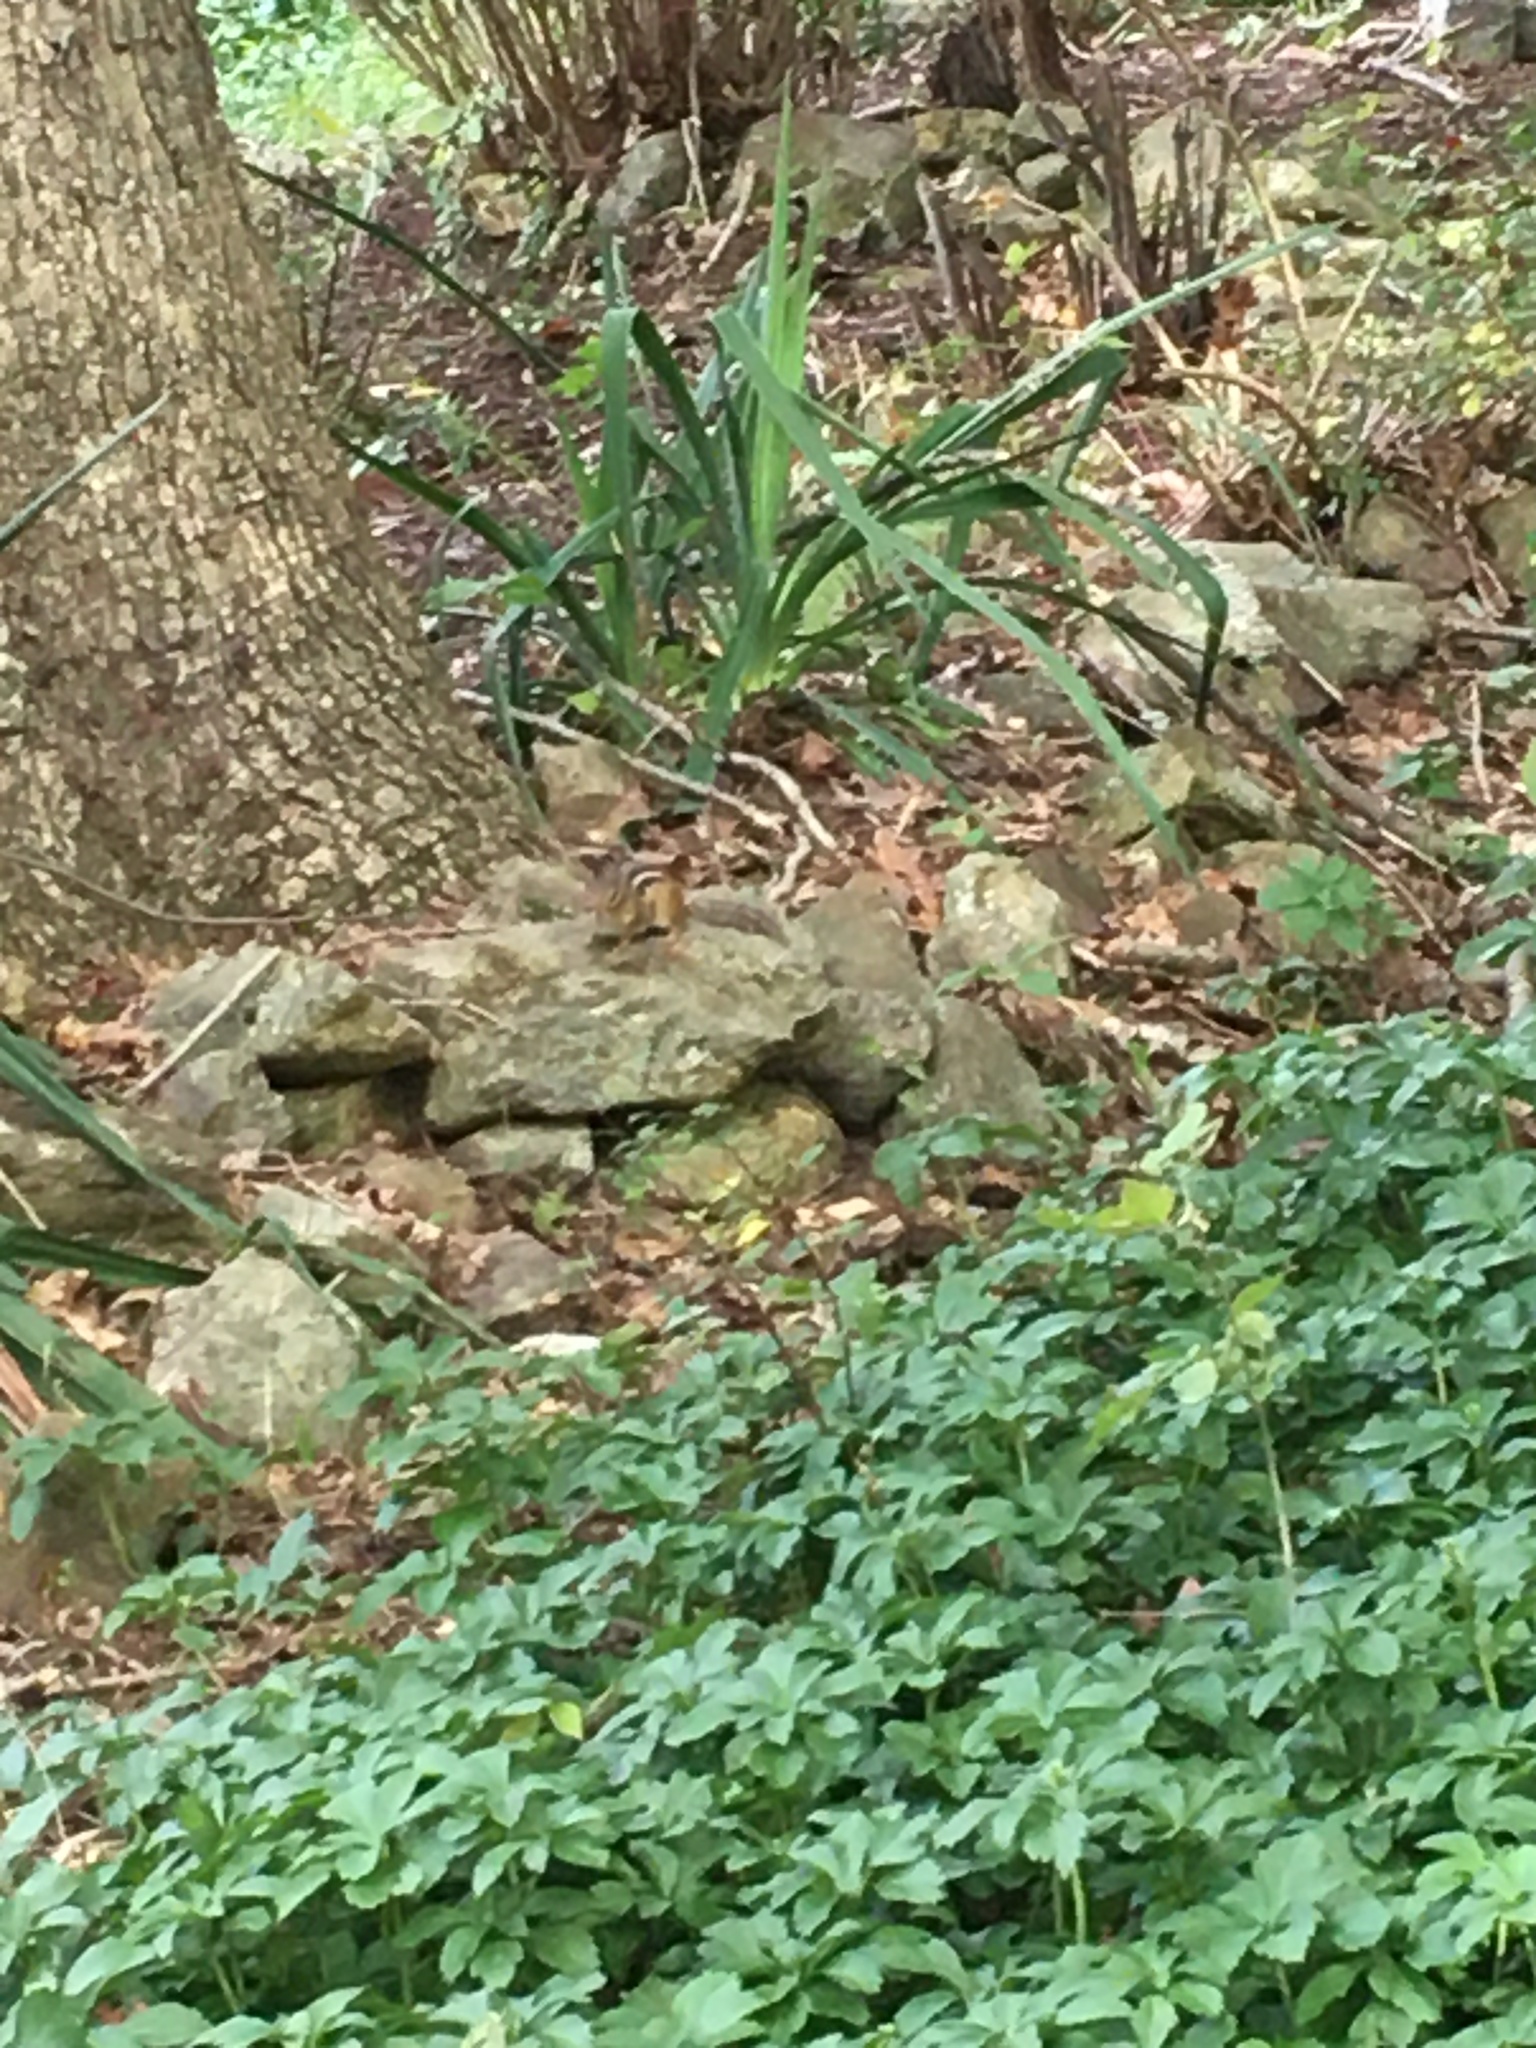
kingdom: Animalia
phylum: Chordata
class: Mammalia
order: Rodentia
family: Sciuridae
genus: Tamias
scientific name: Tamias striatus
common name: Eastern chipmunk
